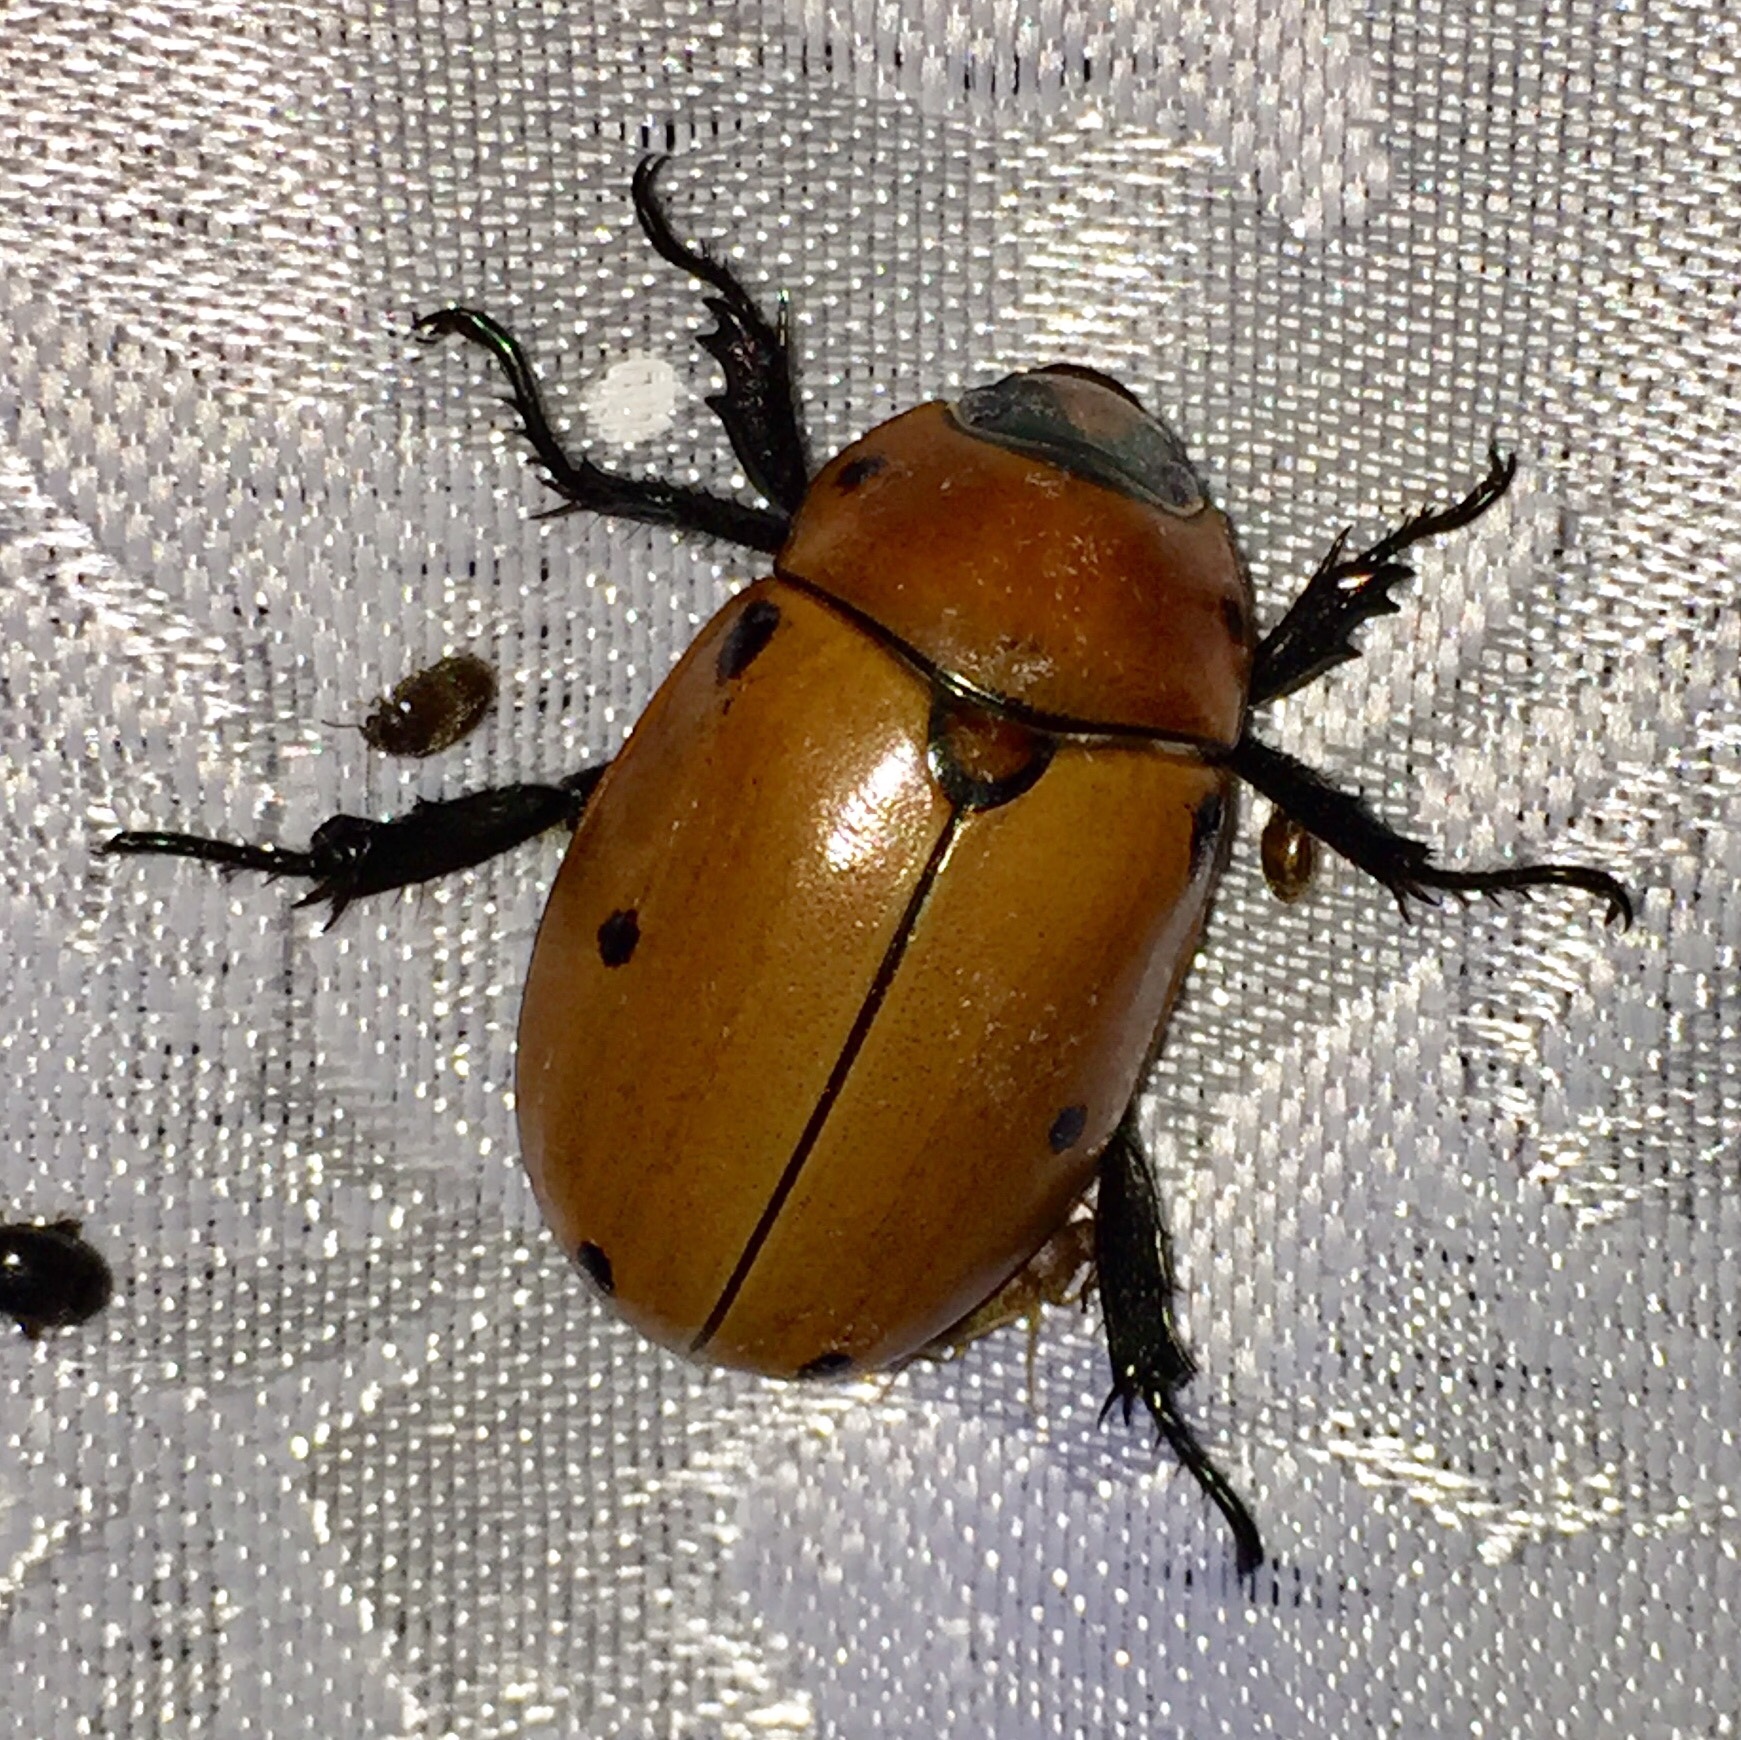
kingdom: Animalia
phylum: Arthropoda
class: Insecta
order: Coleoptera
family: Scarabaeidae
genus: Pelidnota
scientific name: Pelidnota punctata
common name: Grapevine beetle
